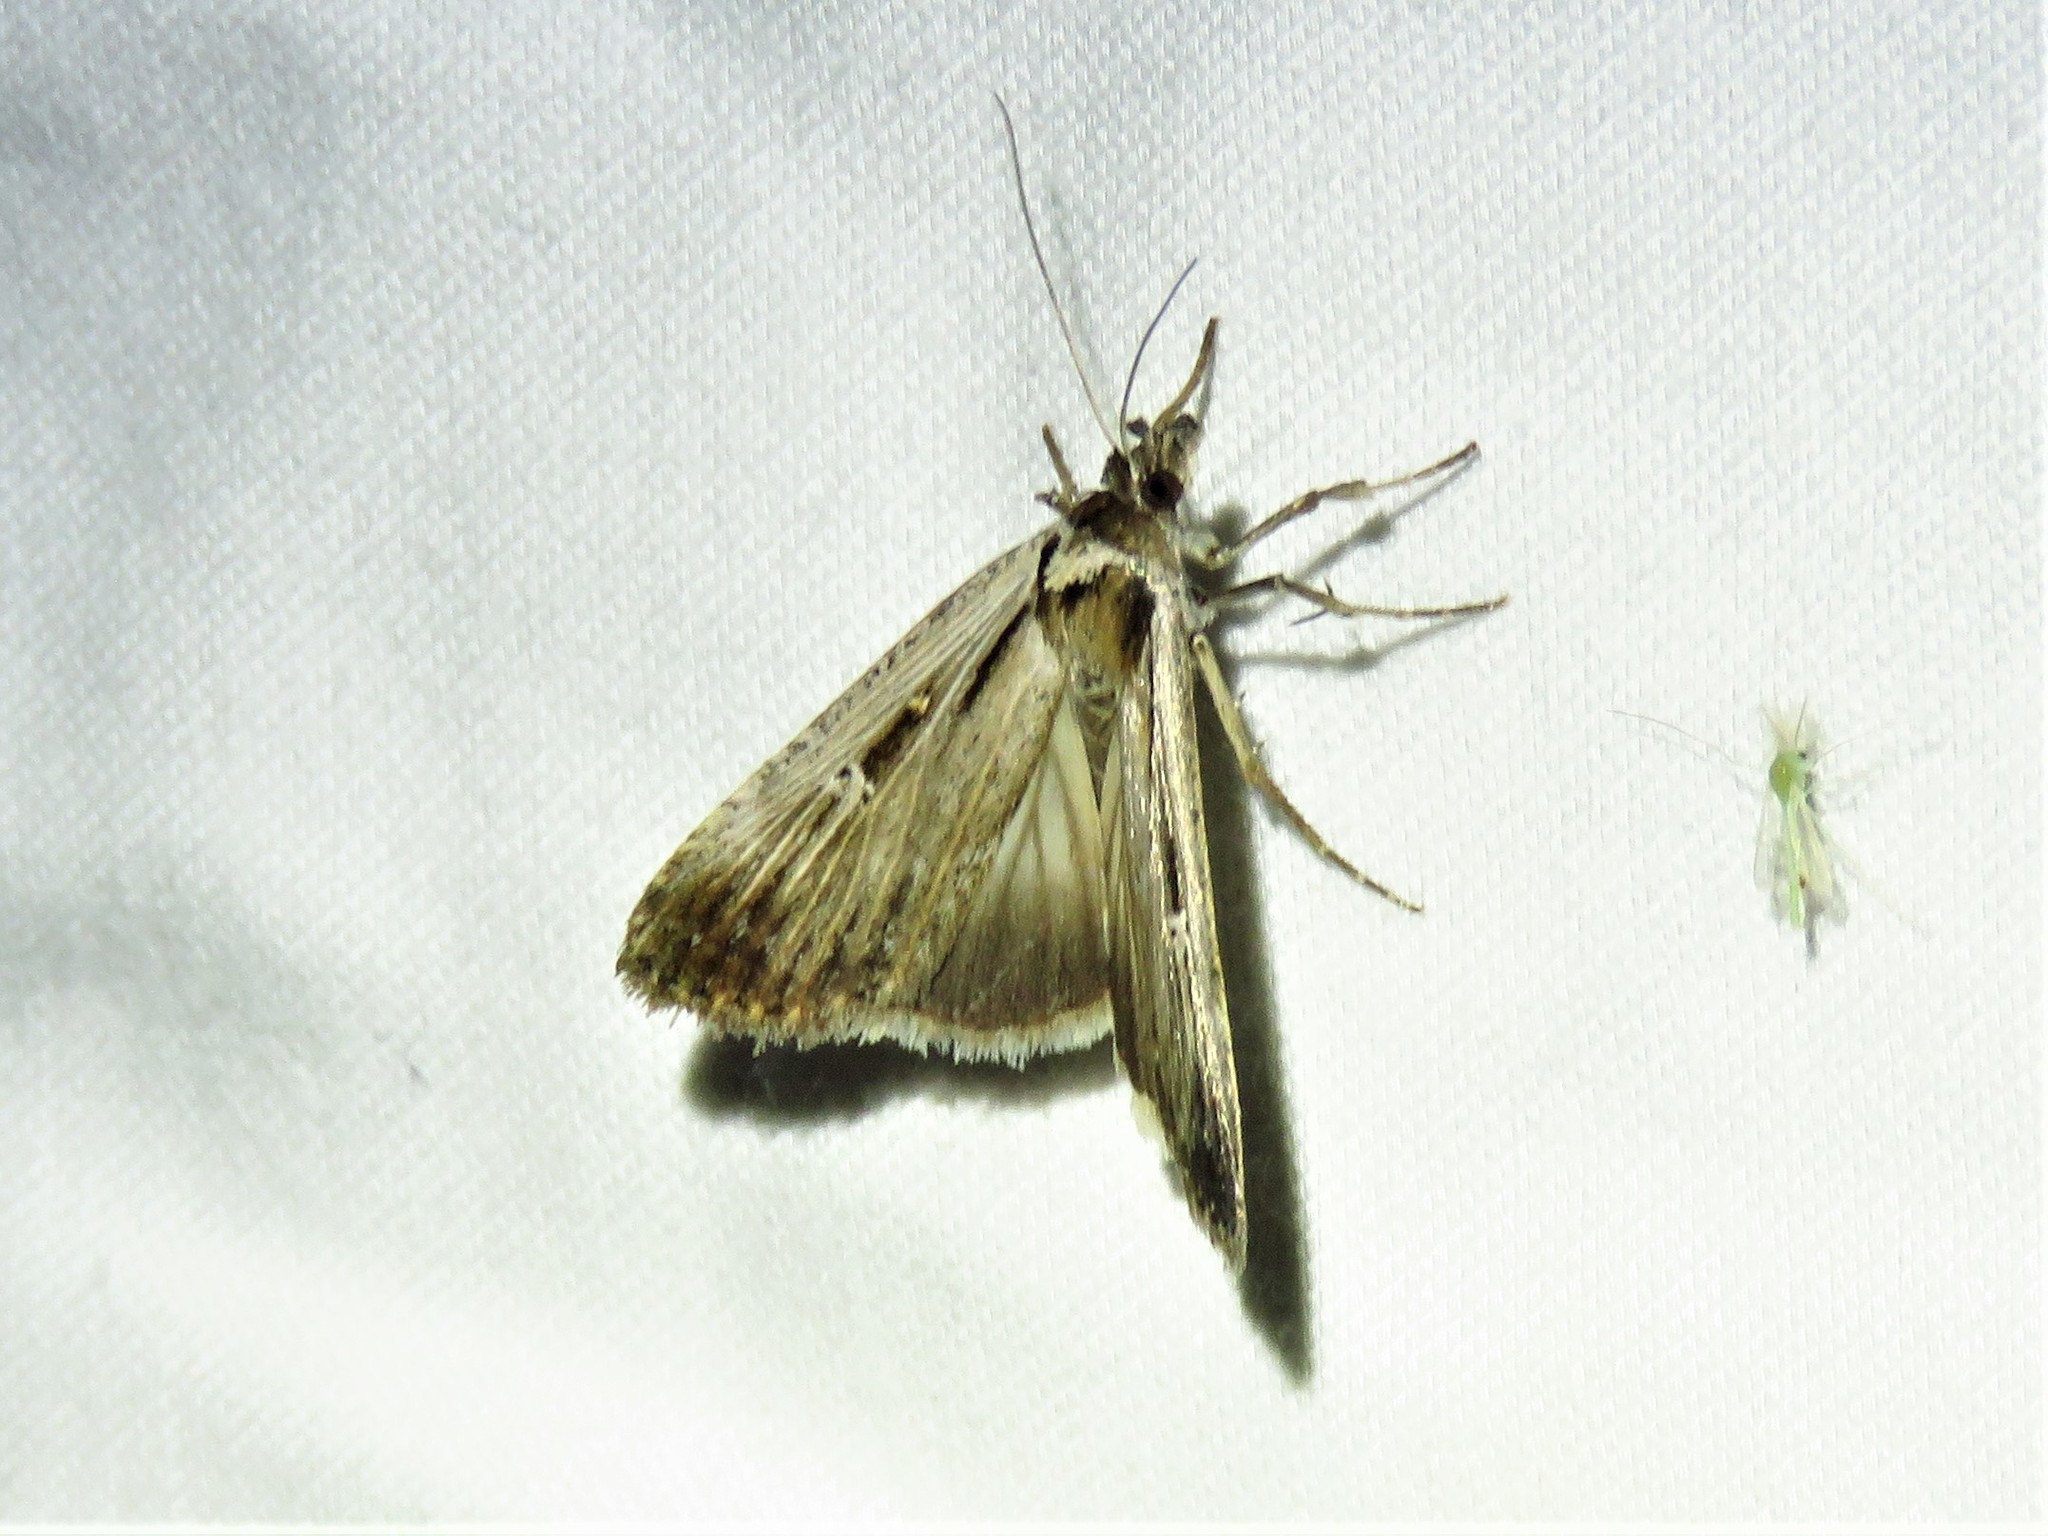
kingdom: Animalia
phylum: Arthropoda
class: Insecta
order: Lepidoptera
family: Noctuidae
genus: Tathorhynchus
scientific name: Tathorhynchus exsiccata
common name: Levant blackneck moth
